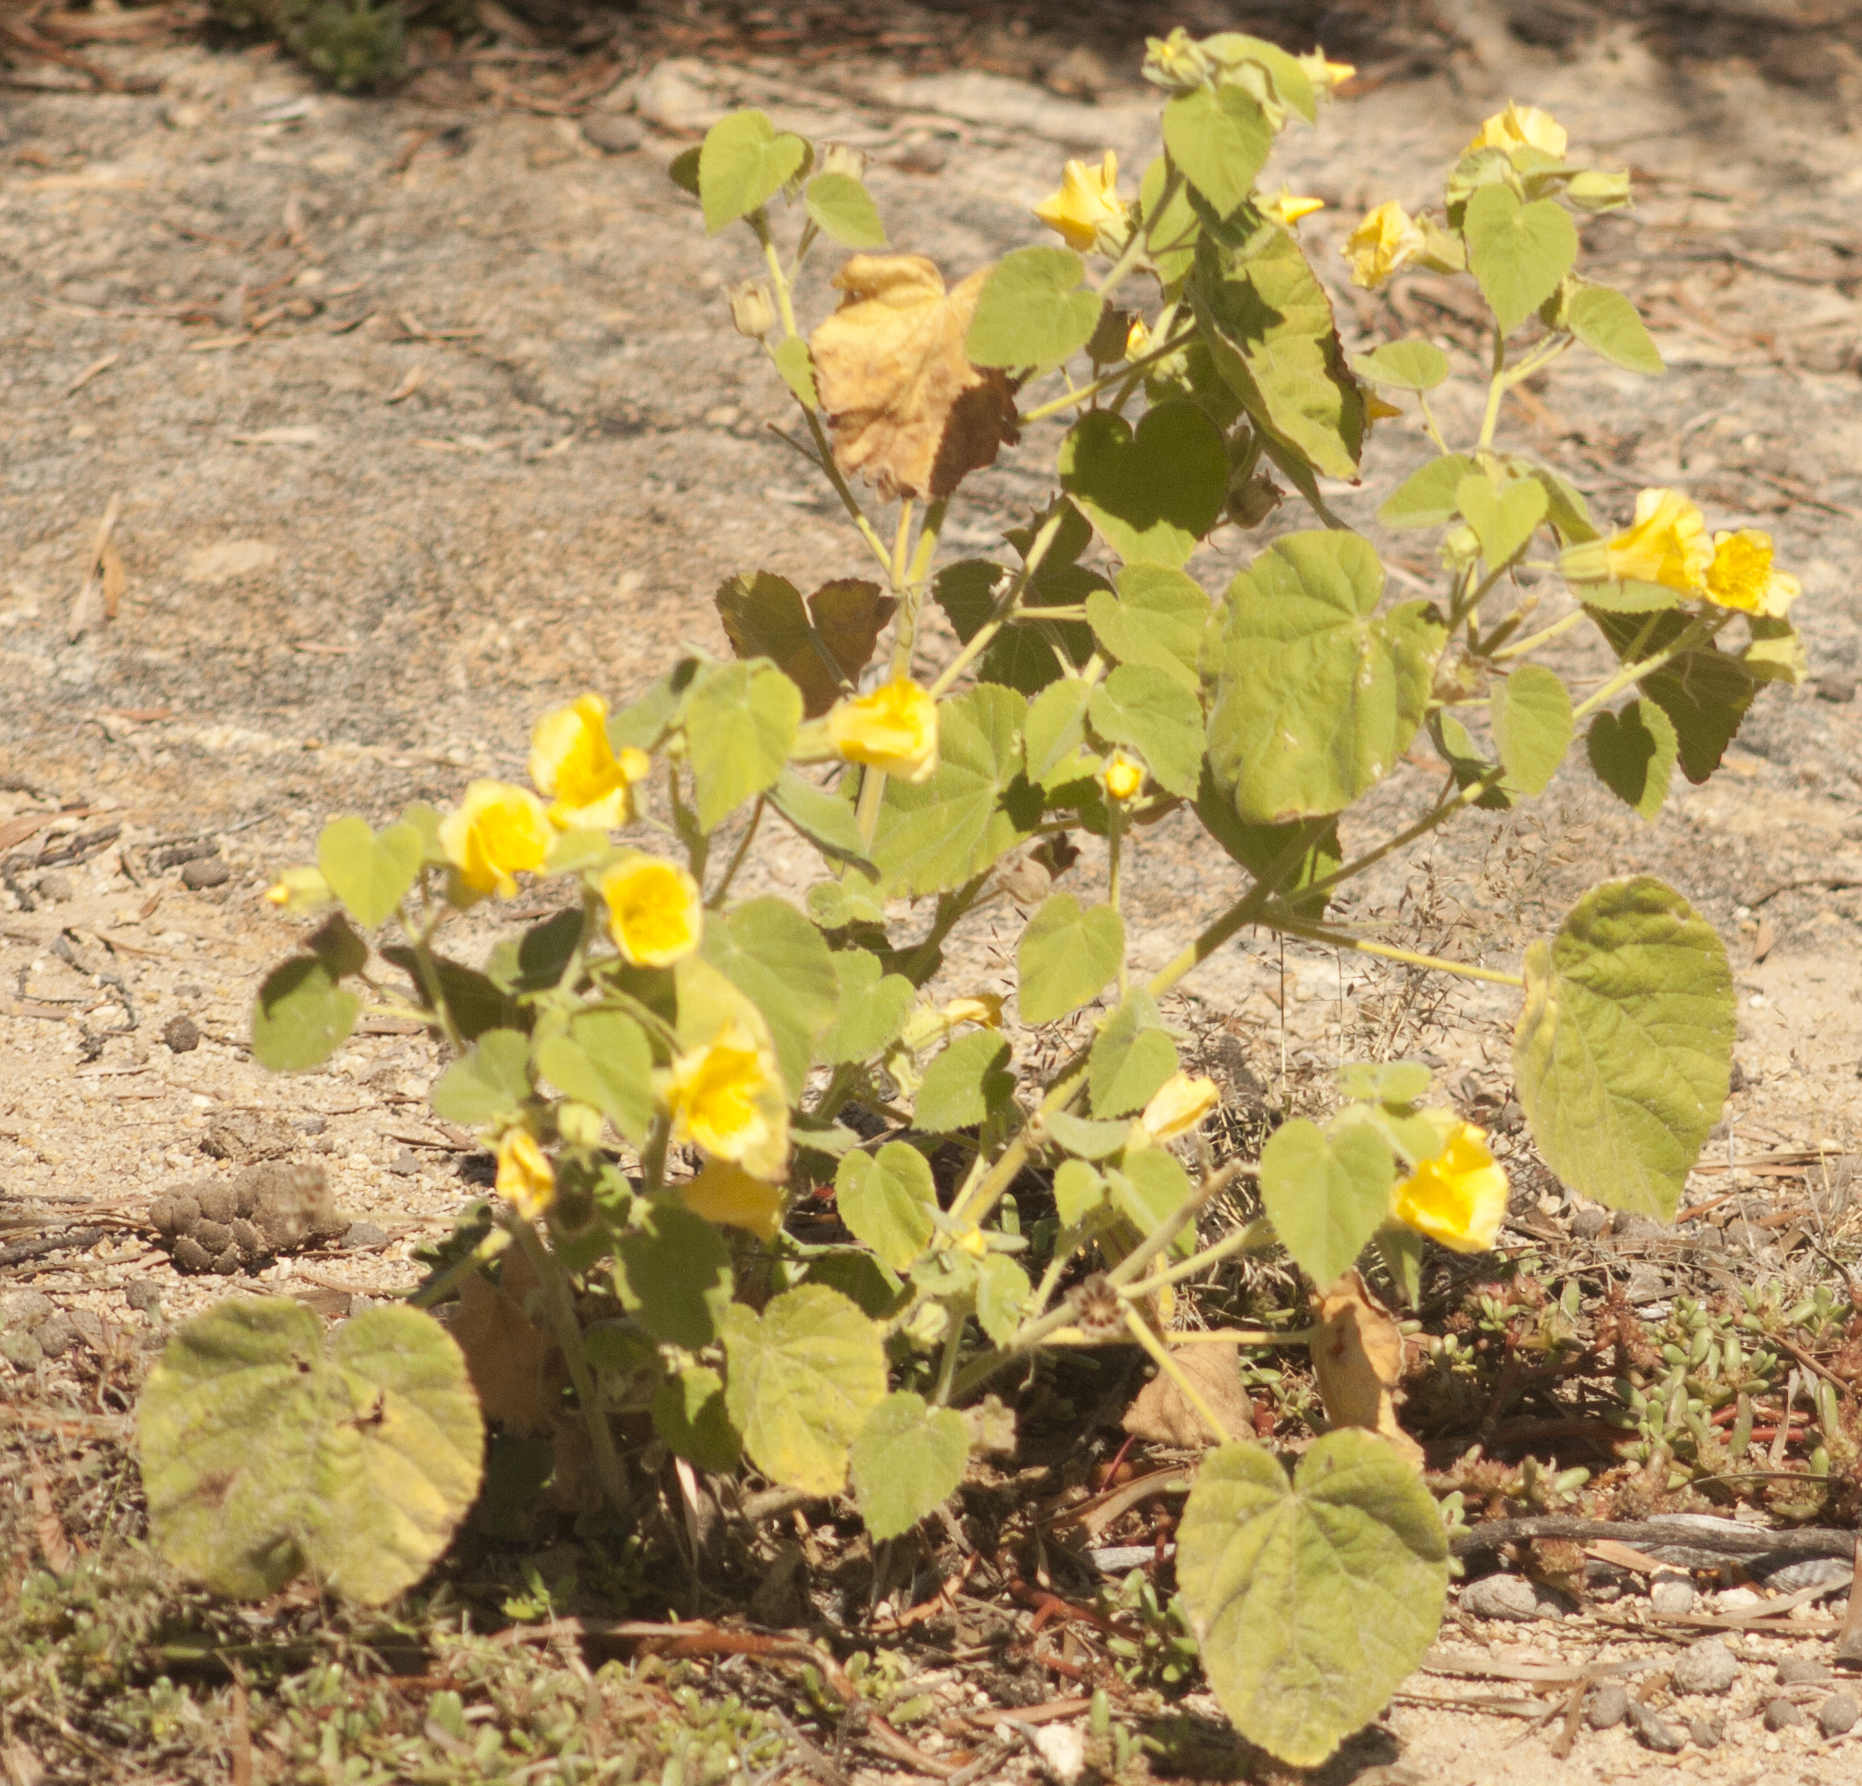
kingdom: Plantae
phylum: Tracheophyta
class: Magnoliopsida
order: Malvales
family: Malvaceae
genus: Abutilon
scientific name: Abutilon leucopetalum
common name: Lanternbush
